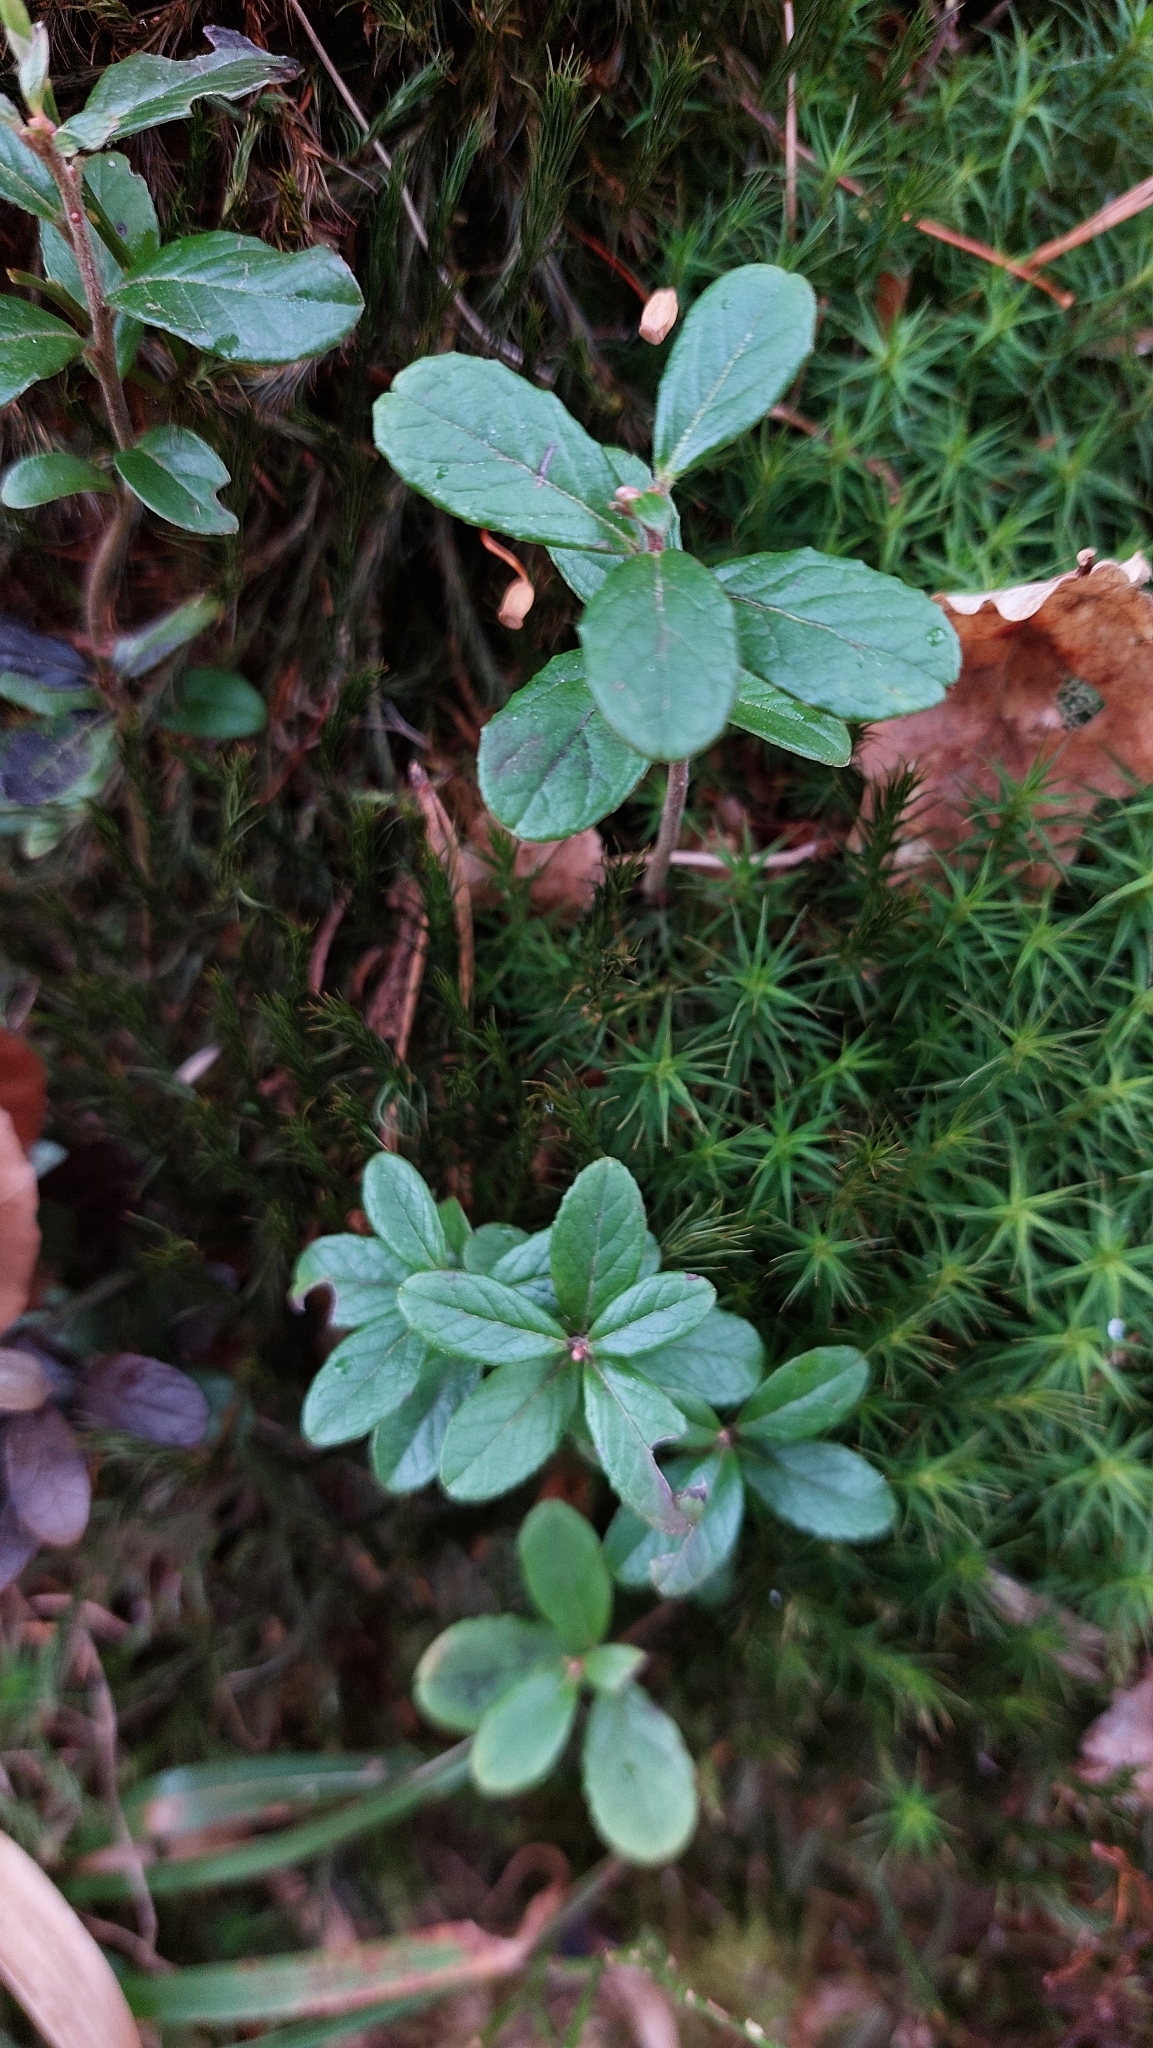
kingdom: Plantae
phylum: Tracheophyta
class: Magnoliopsida
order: Ericales
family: Ericaceae
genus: Vaccinium
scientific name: Vaccinium vitis-idaea
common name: Cowberry
